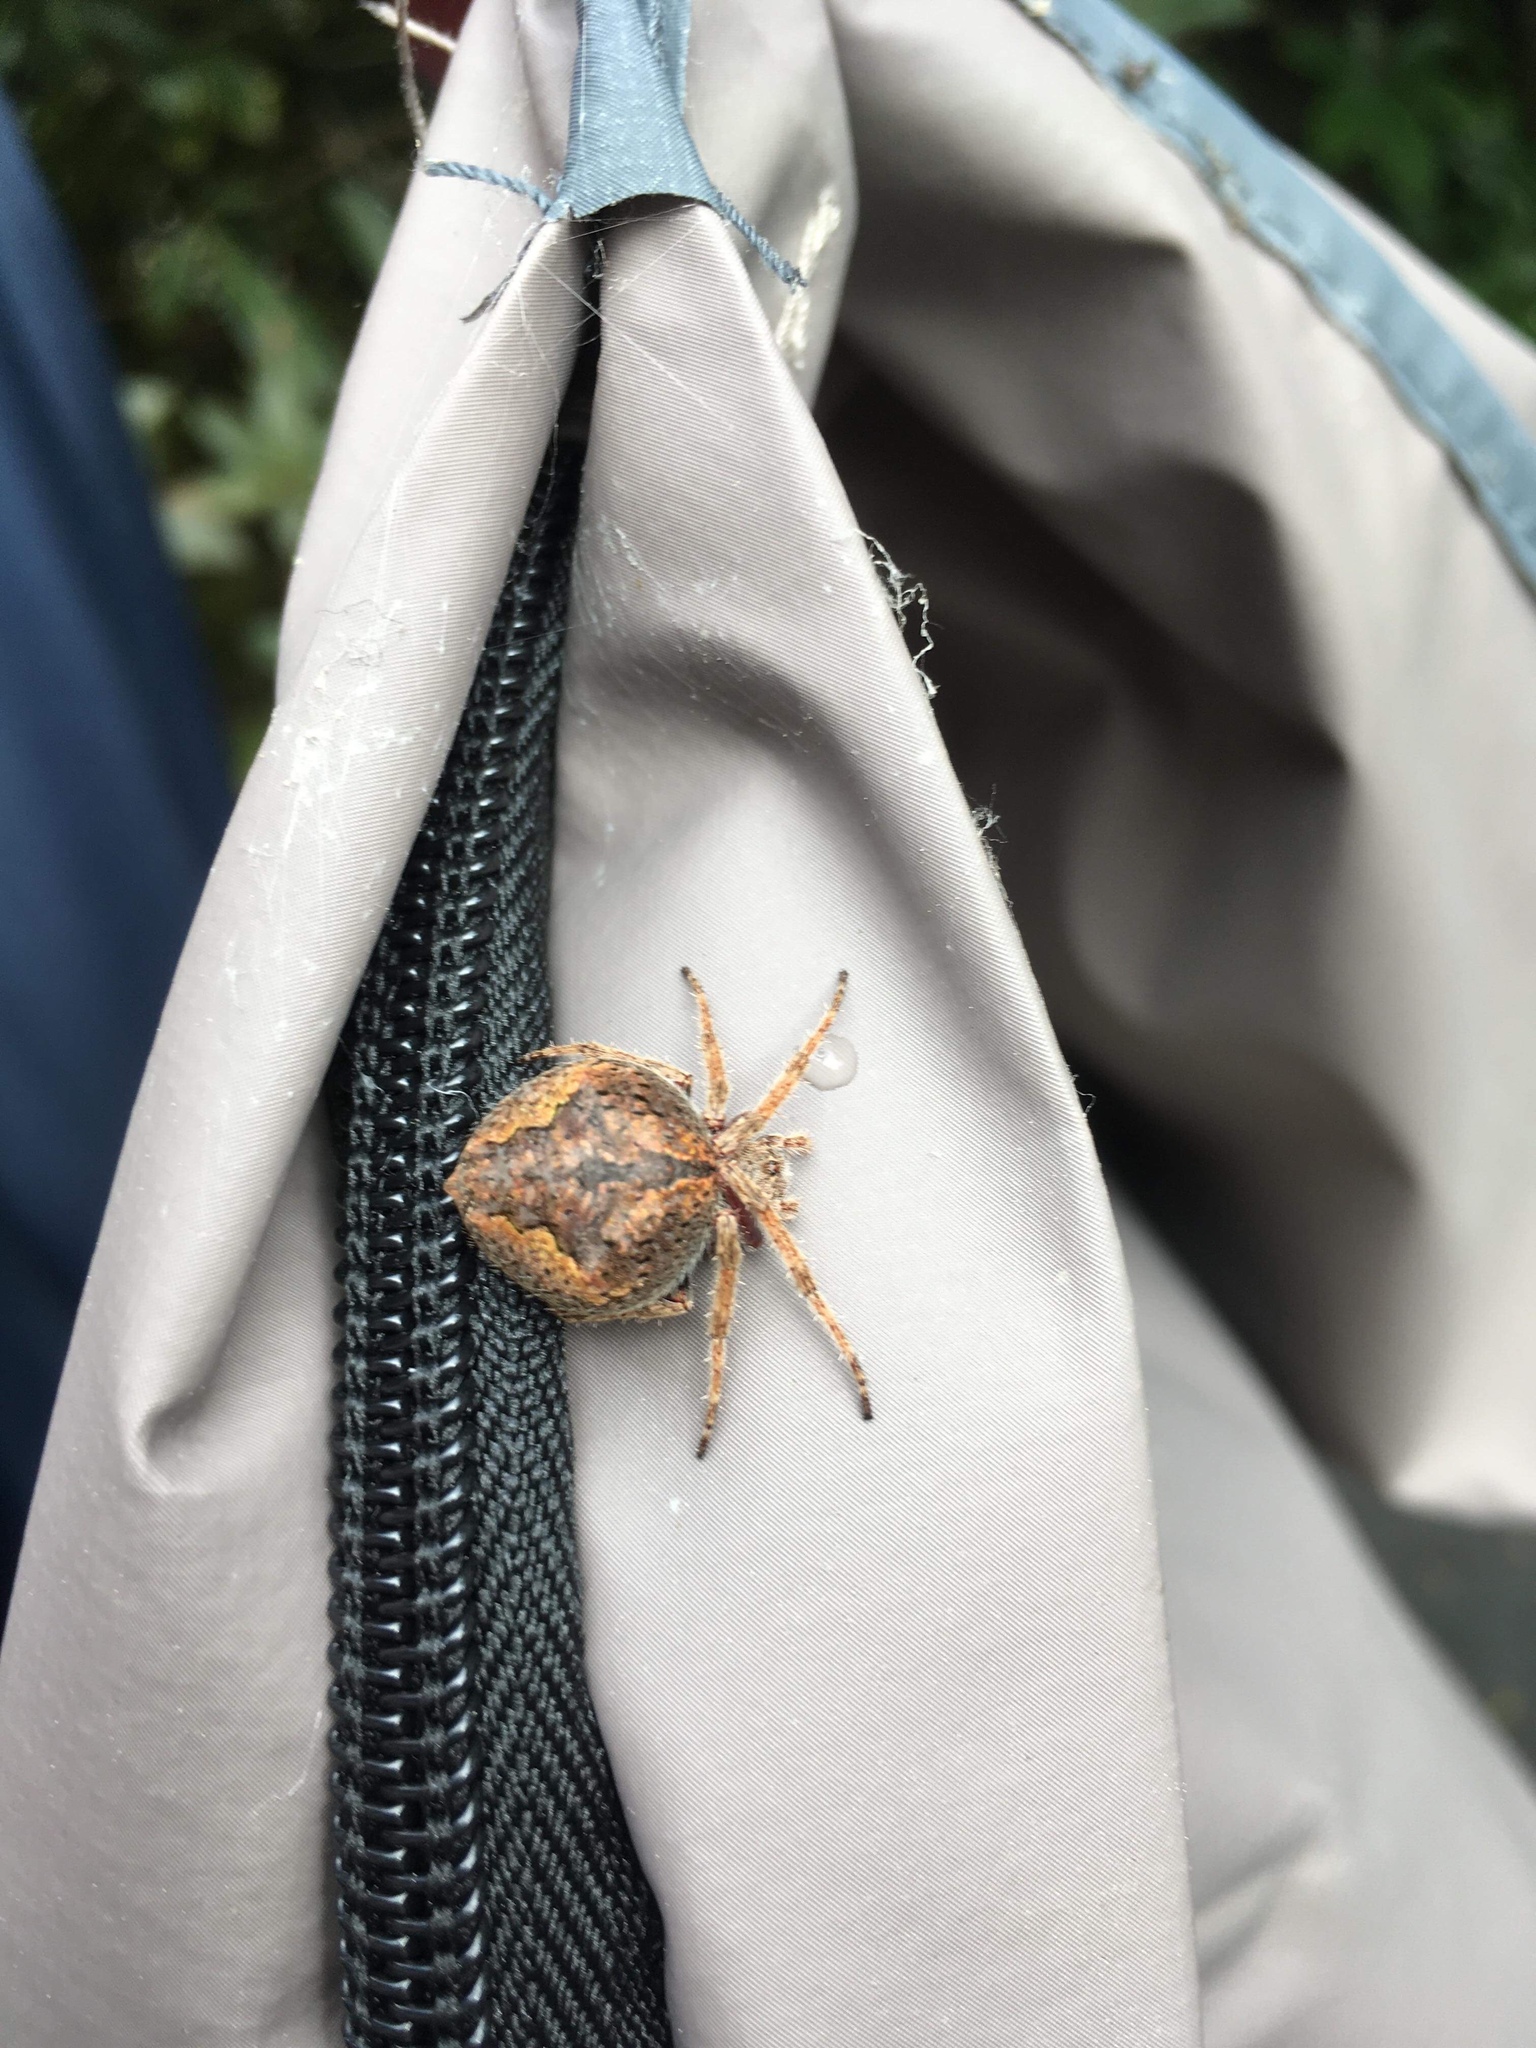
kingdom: Animalia
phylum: Arthropoda
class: Arachnida
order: Araneae
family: Araneidae
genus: Eriophora
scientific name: Eriophora pustulosa
